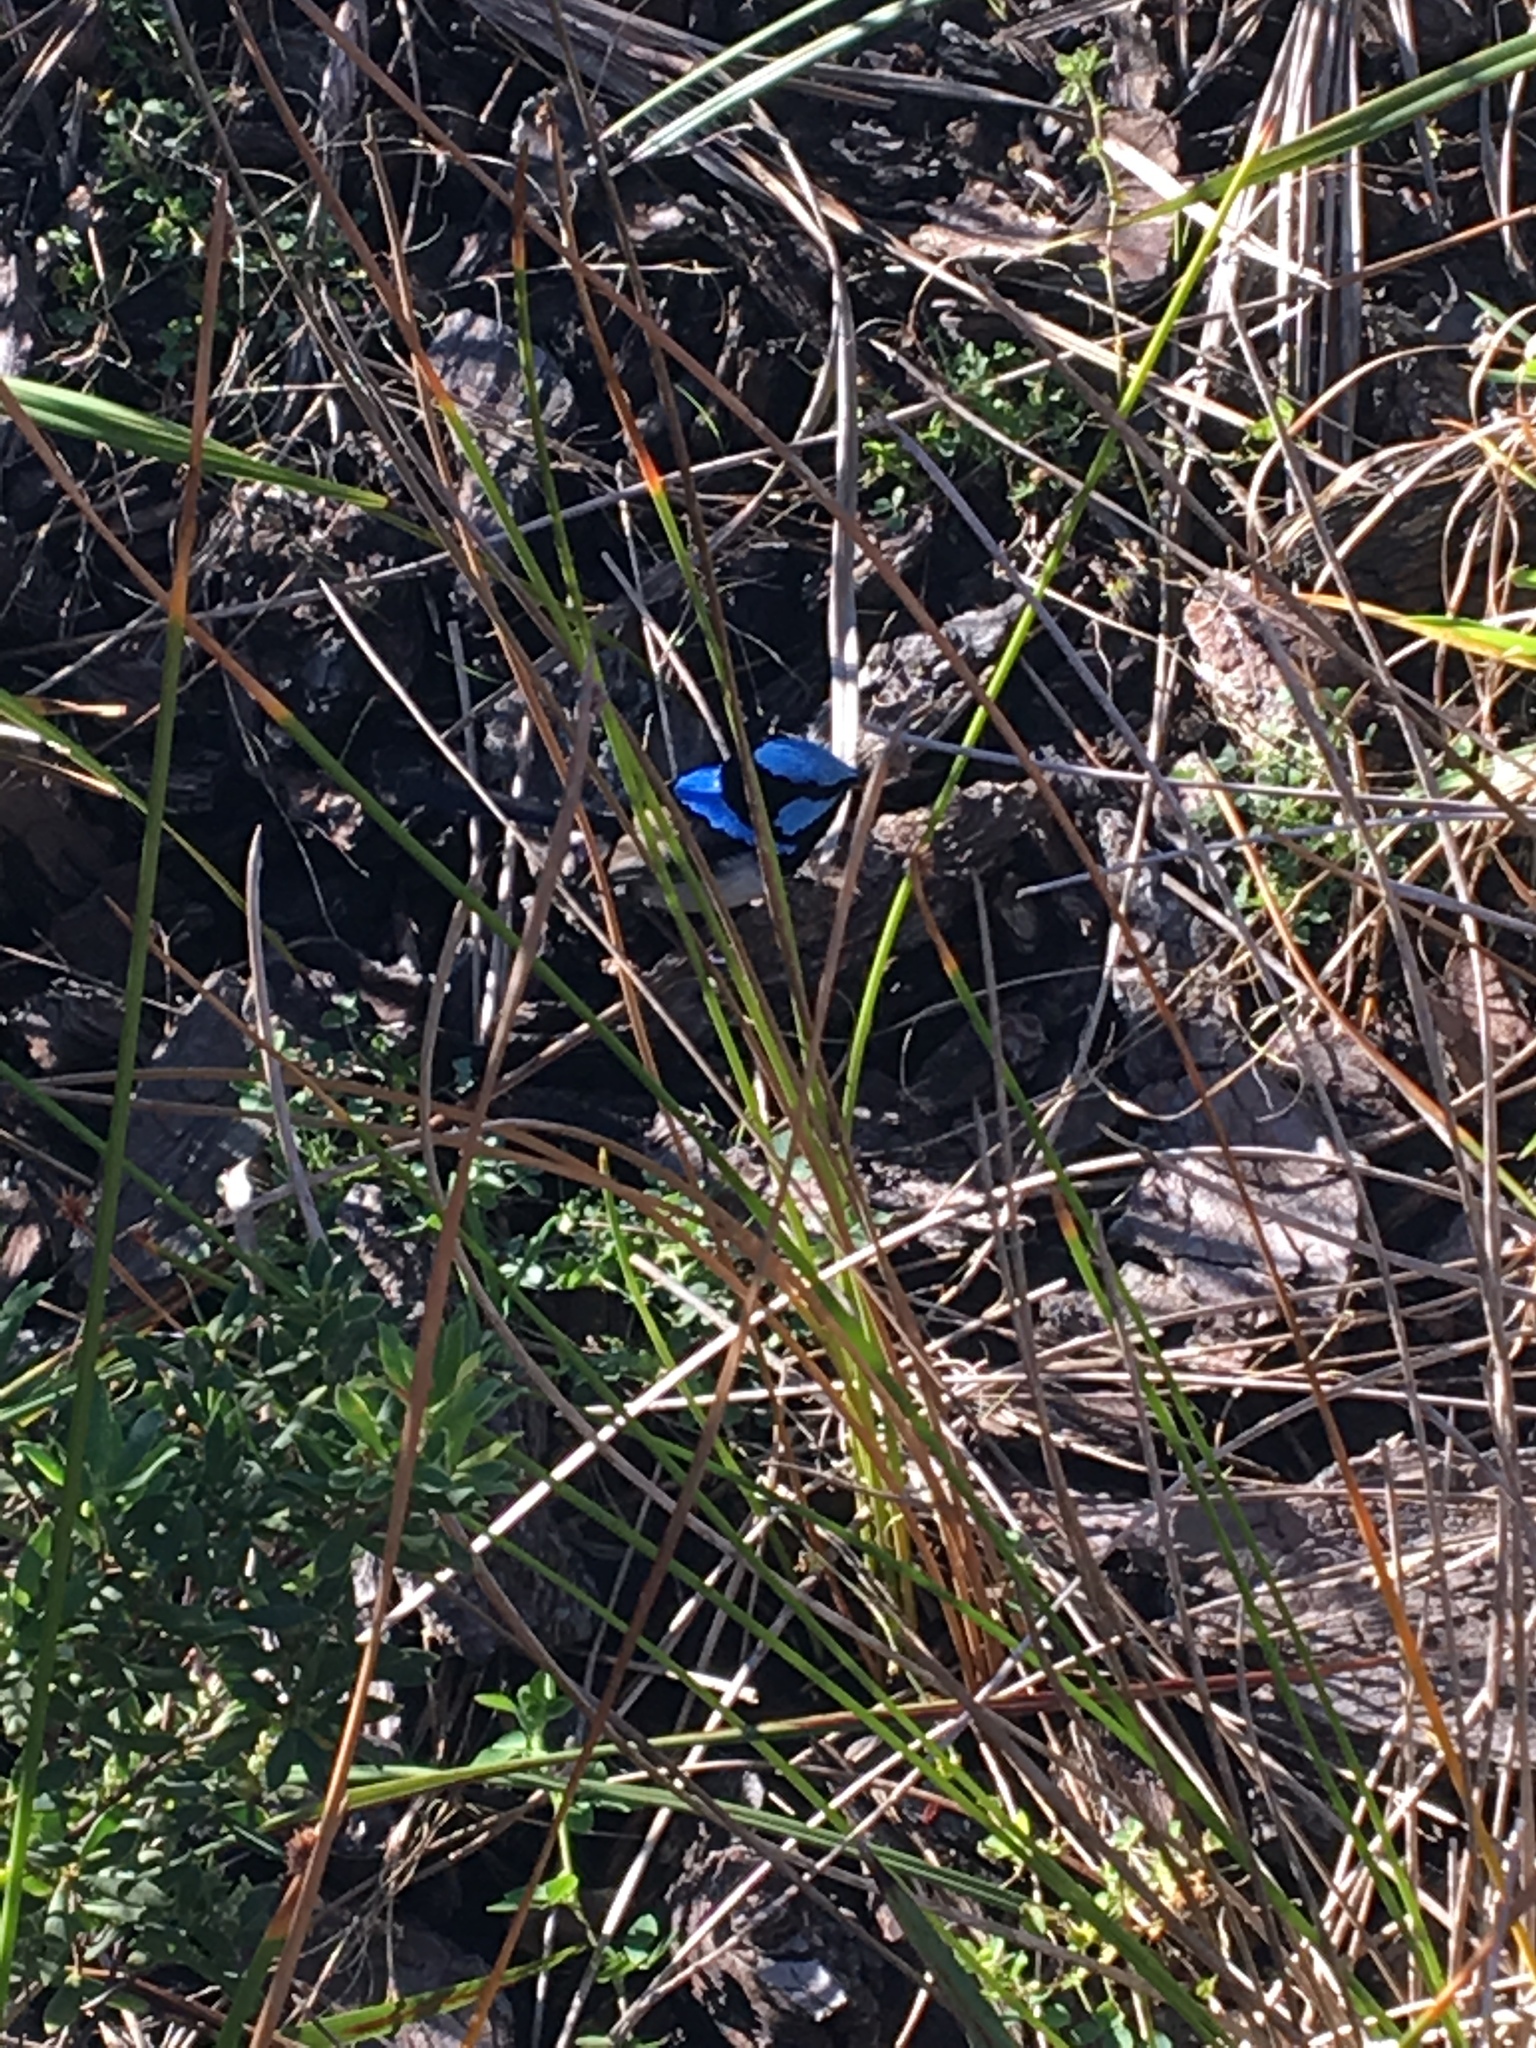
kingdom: Animalia
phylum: Chordata
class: Aves
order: Passeriformes
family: Maluridae
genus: Malurus
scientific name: Malurus cyaneus
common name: Superb fairywren
